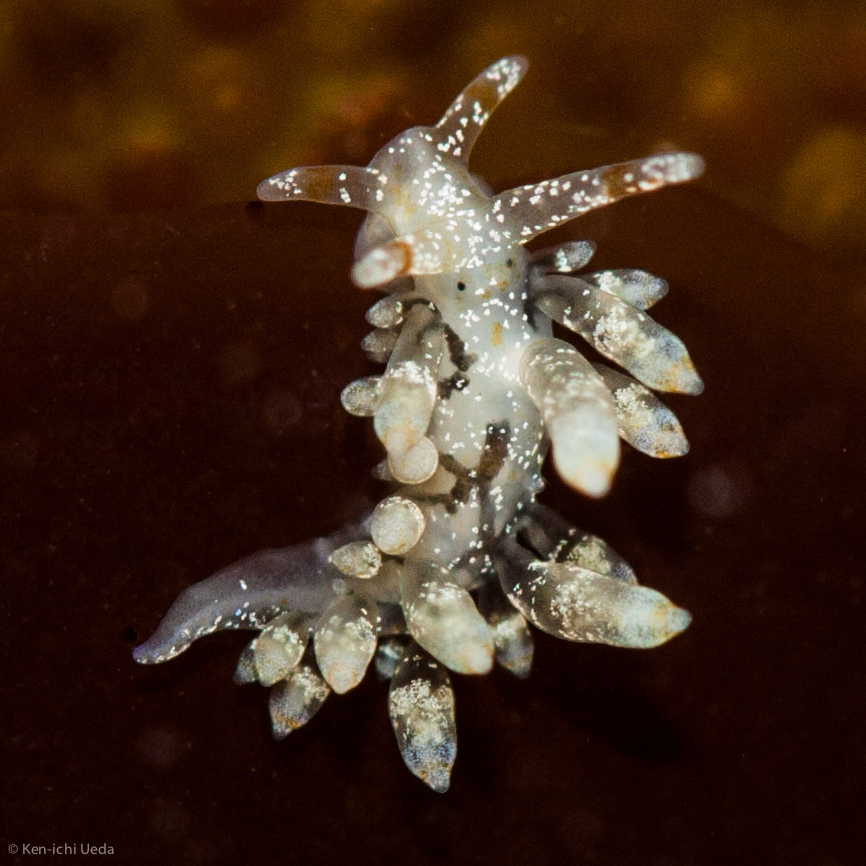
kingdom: Animalia
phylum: Mollusca
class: Gastropoda
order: Nudibranchia
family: Eubranchidae
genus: Eubranchus
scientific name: Eubranchus olivaceus
